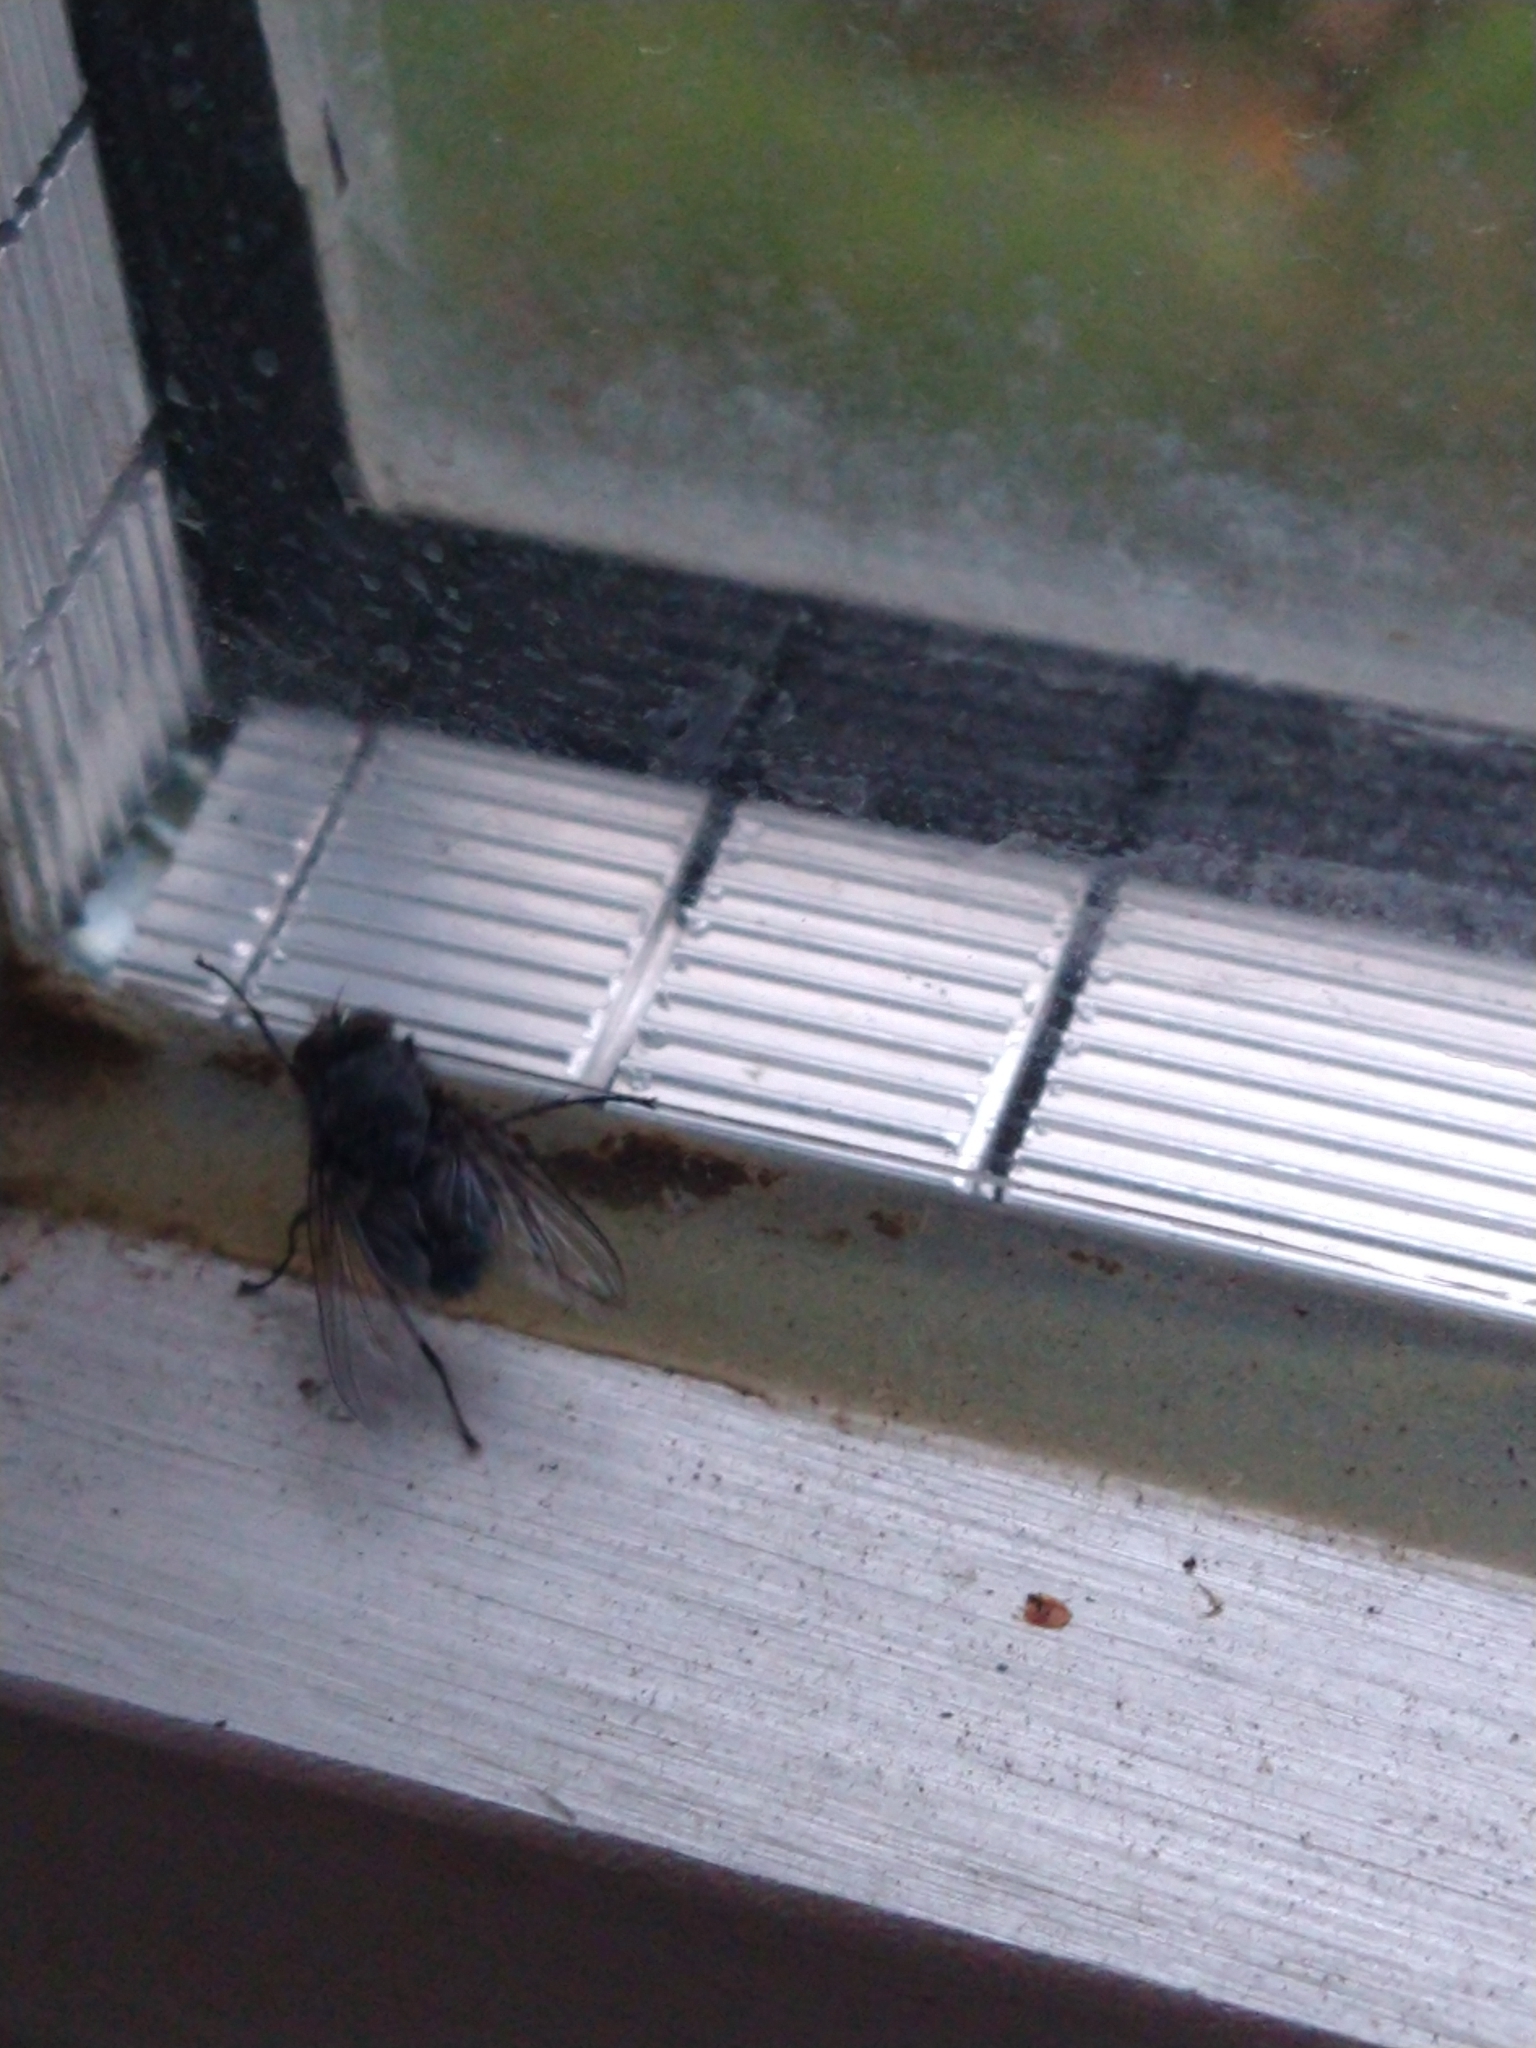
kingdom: Animalia
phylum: Arthropoda
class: Insecta
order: Diptera
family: Calliphoridae
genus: Calliphora
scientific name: Calliphora vicina
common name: Common blow flie
